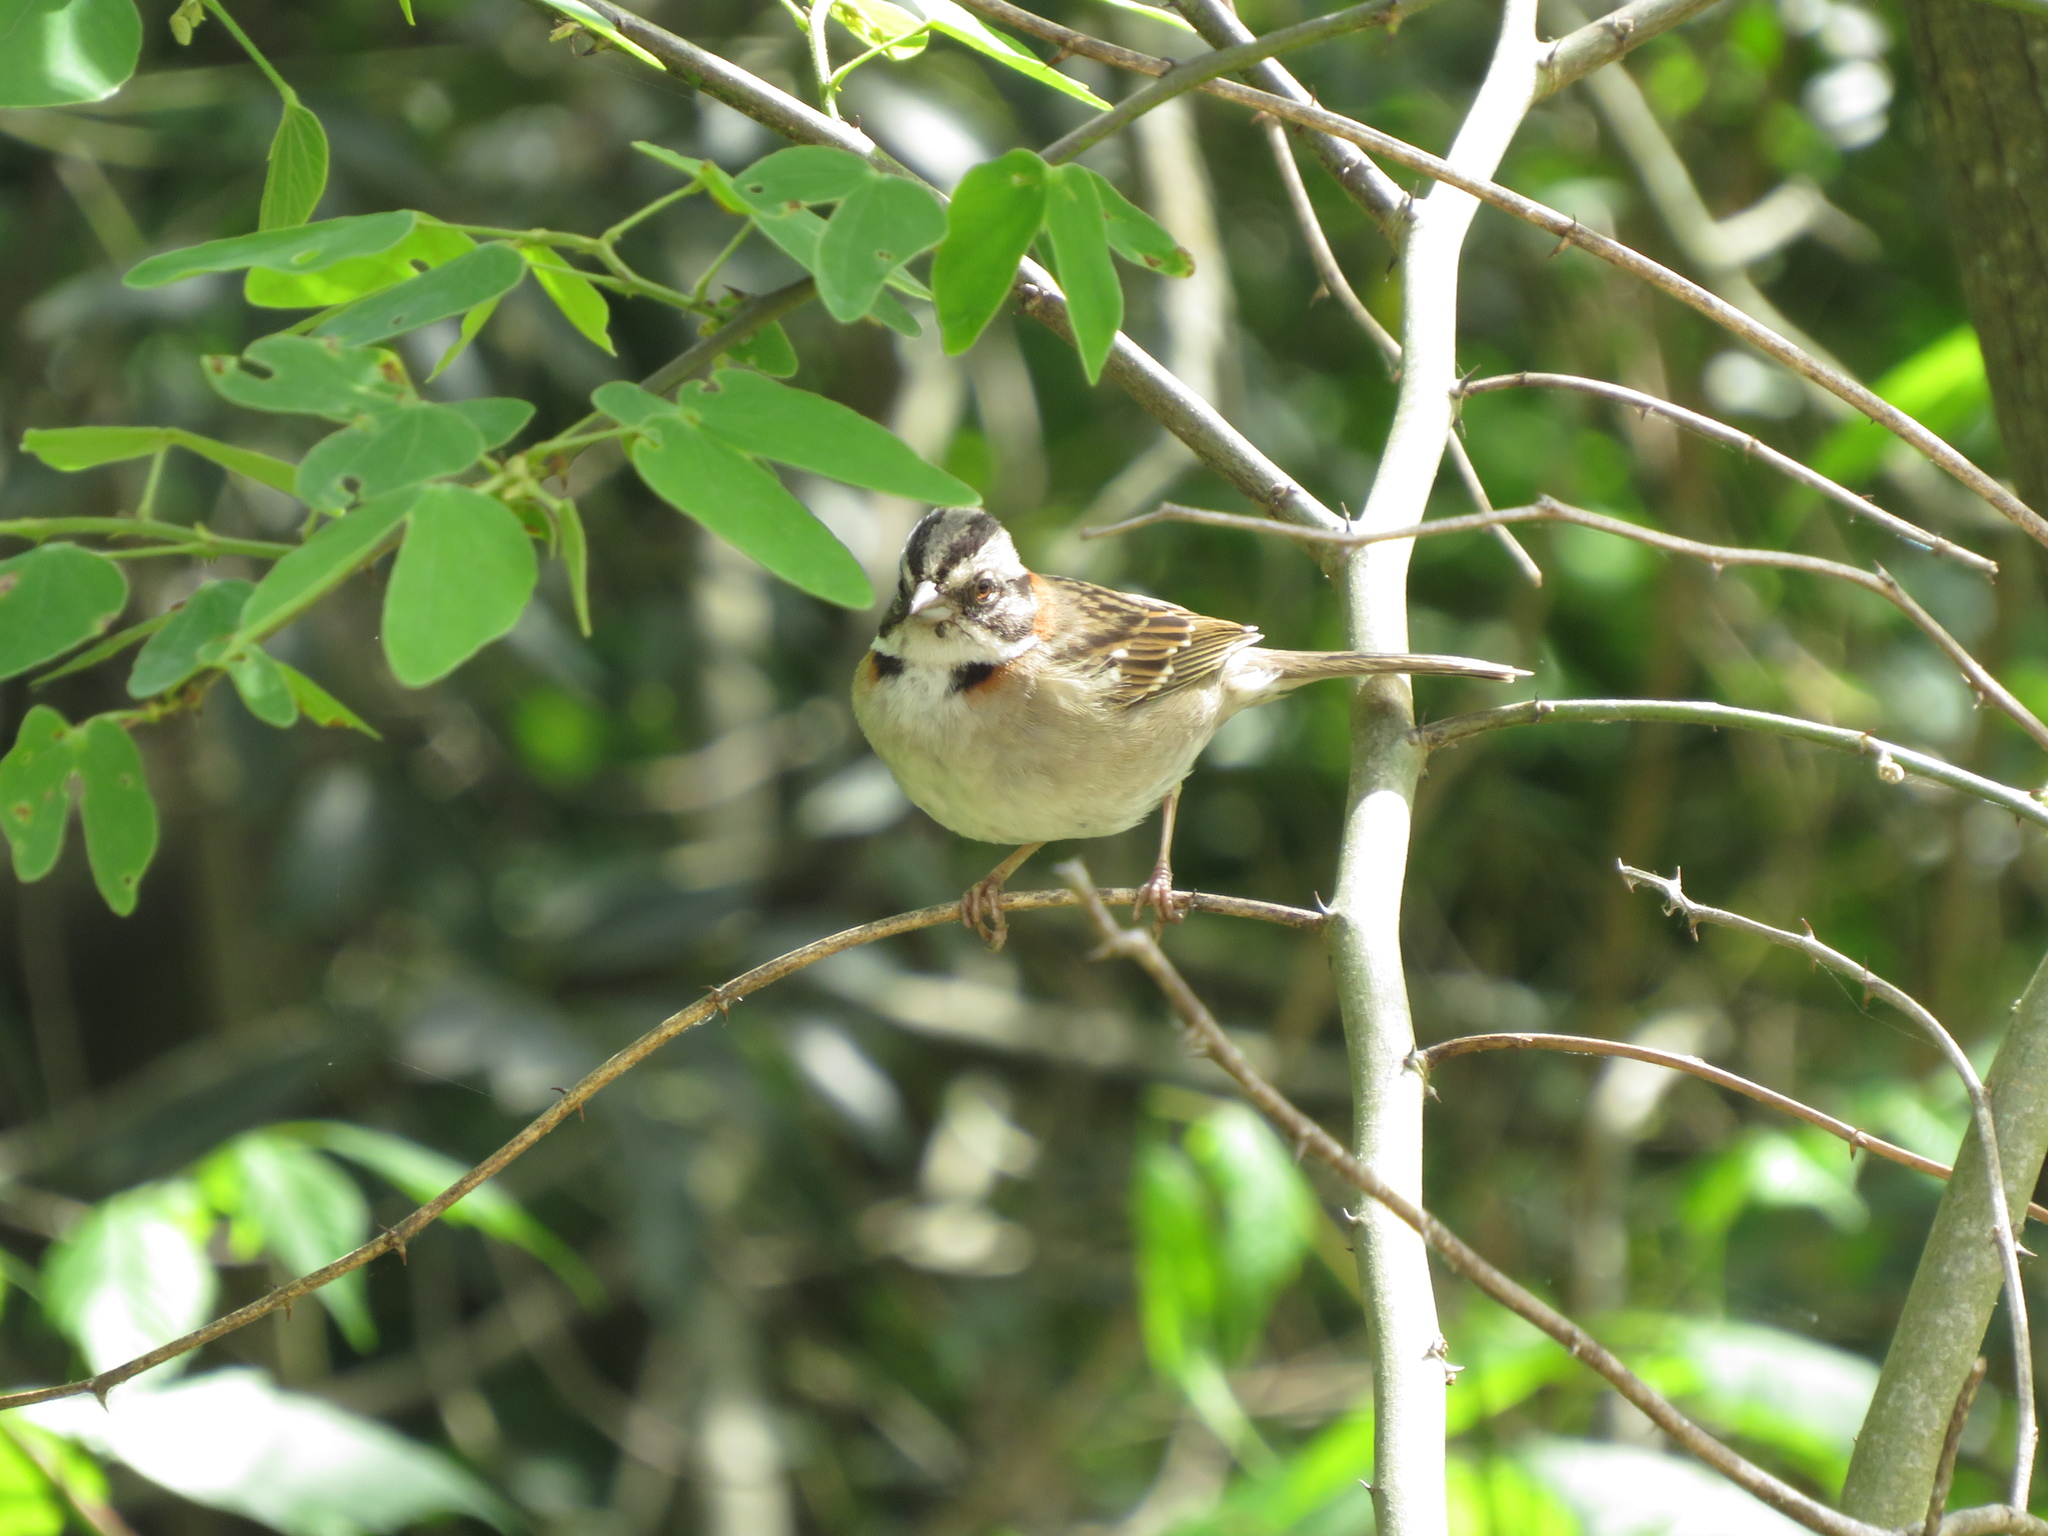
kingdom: Animalia
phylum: Chordata
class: Aves
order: Passeriformes
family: Passerellidae
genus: Zonotrichia
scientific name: Zonotrichia capensis
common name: Rufous-collared sparrow
